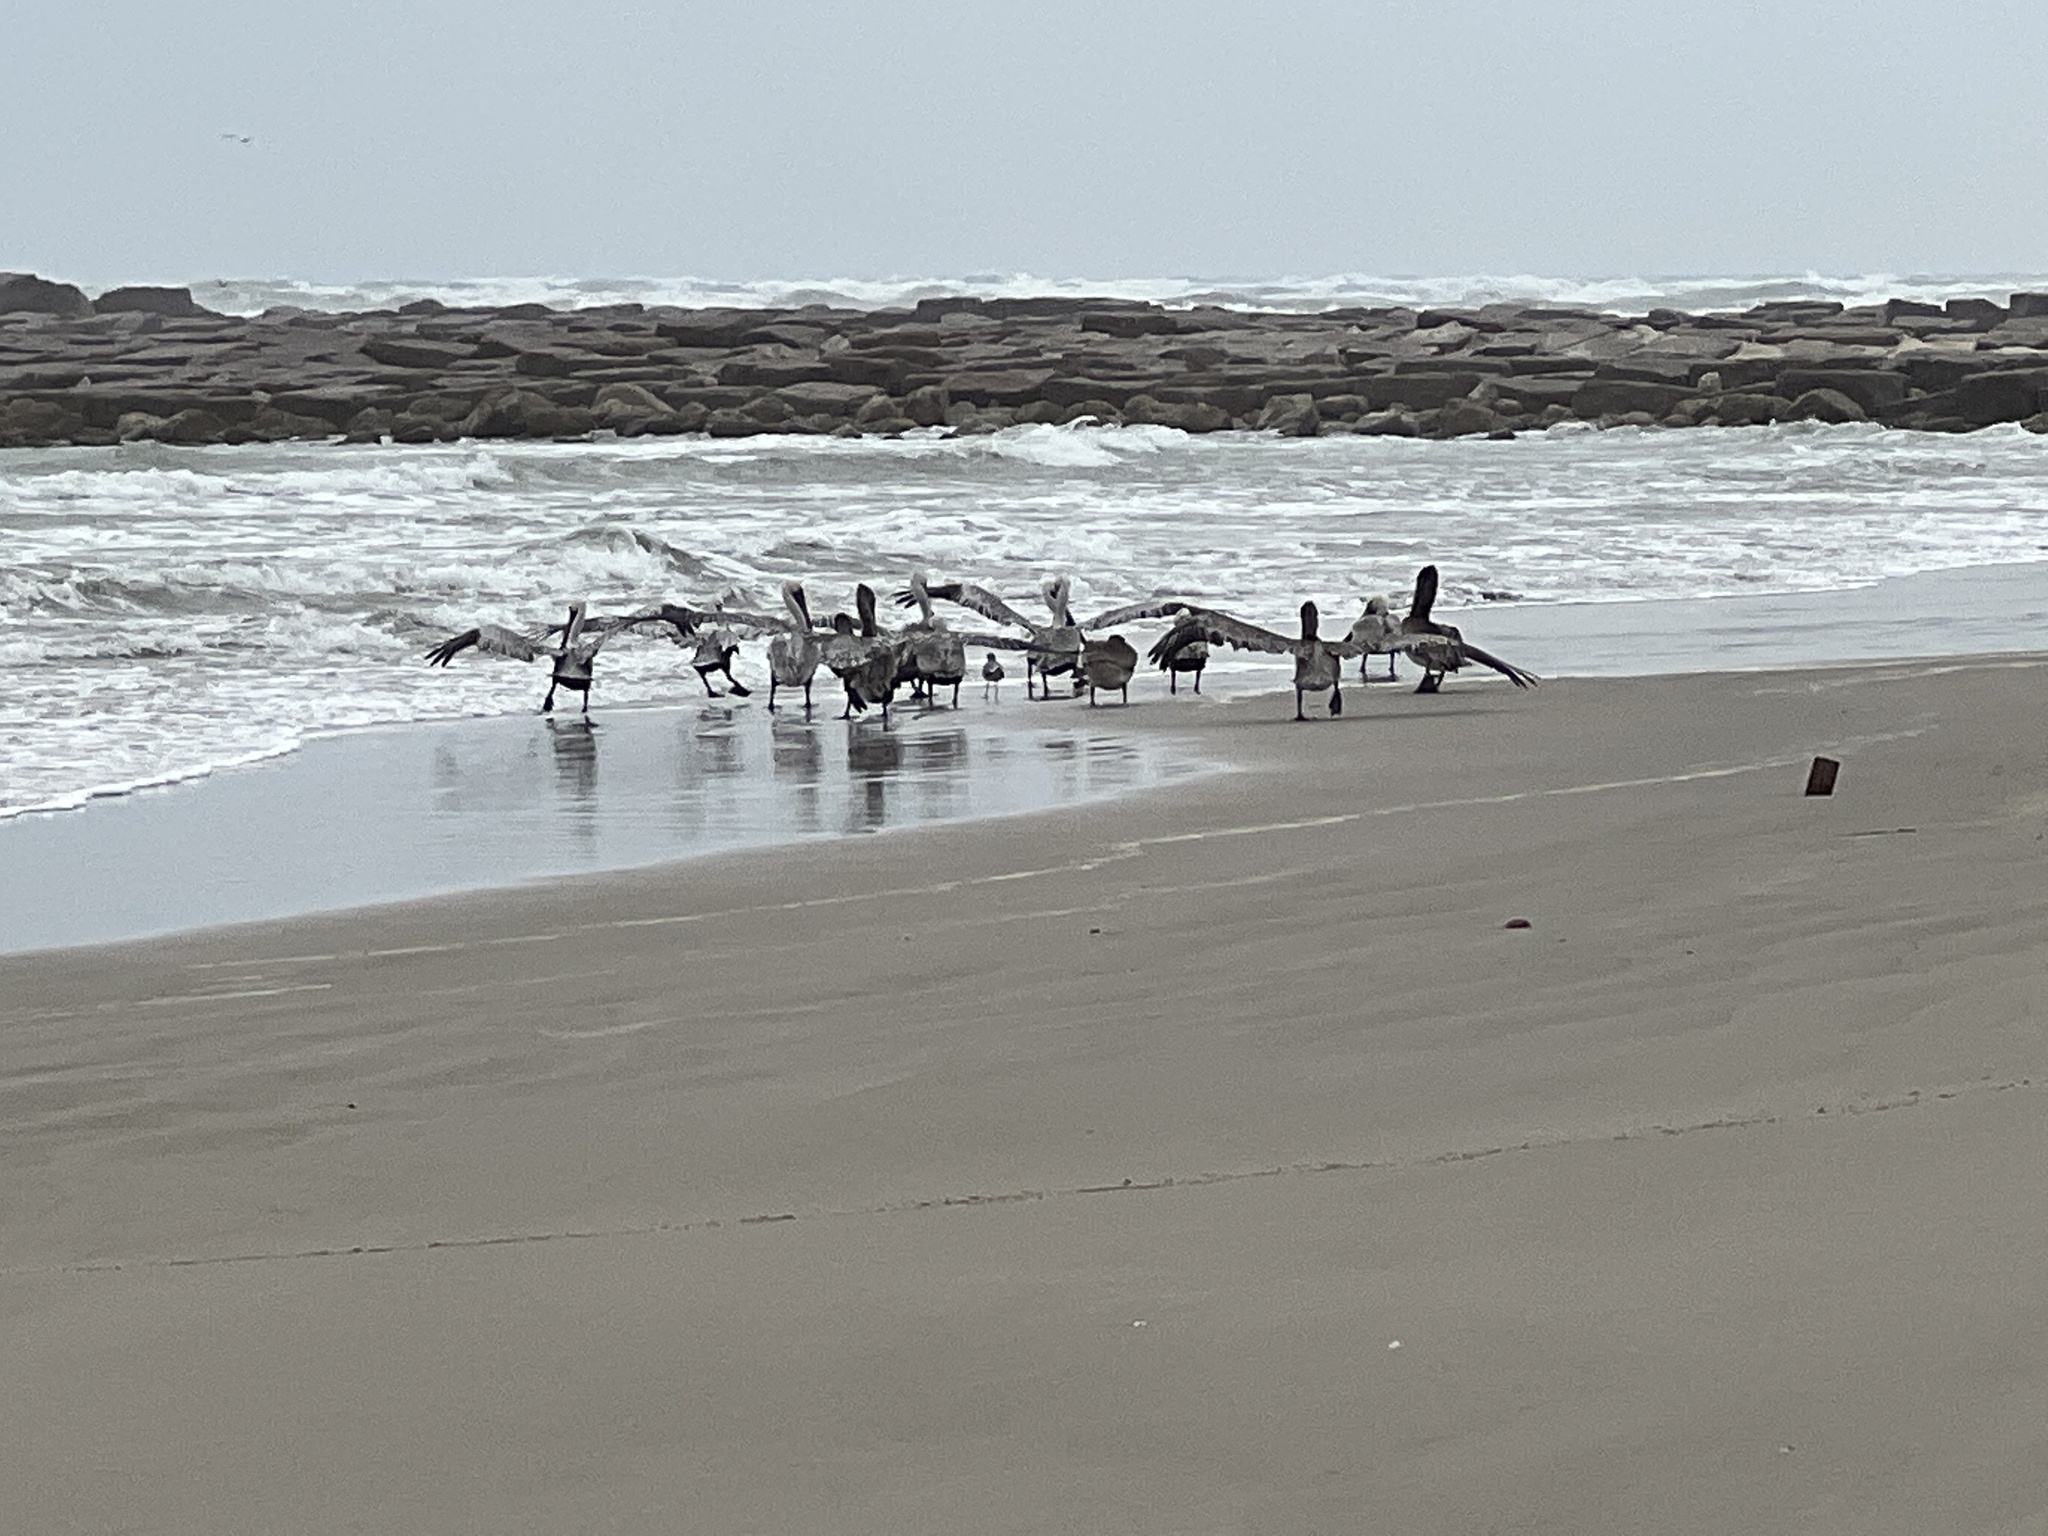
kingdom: Animalia
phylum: Chordata
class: Aves
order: Pelecaniformes
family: Pelecanidae
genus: Pelecanus
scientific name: Pelecanus occidentalis
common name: Brown pelican
